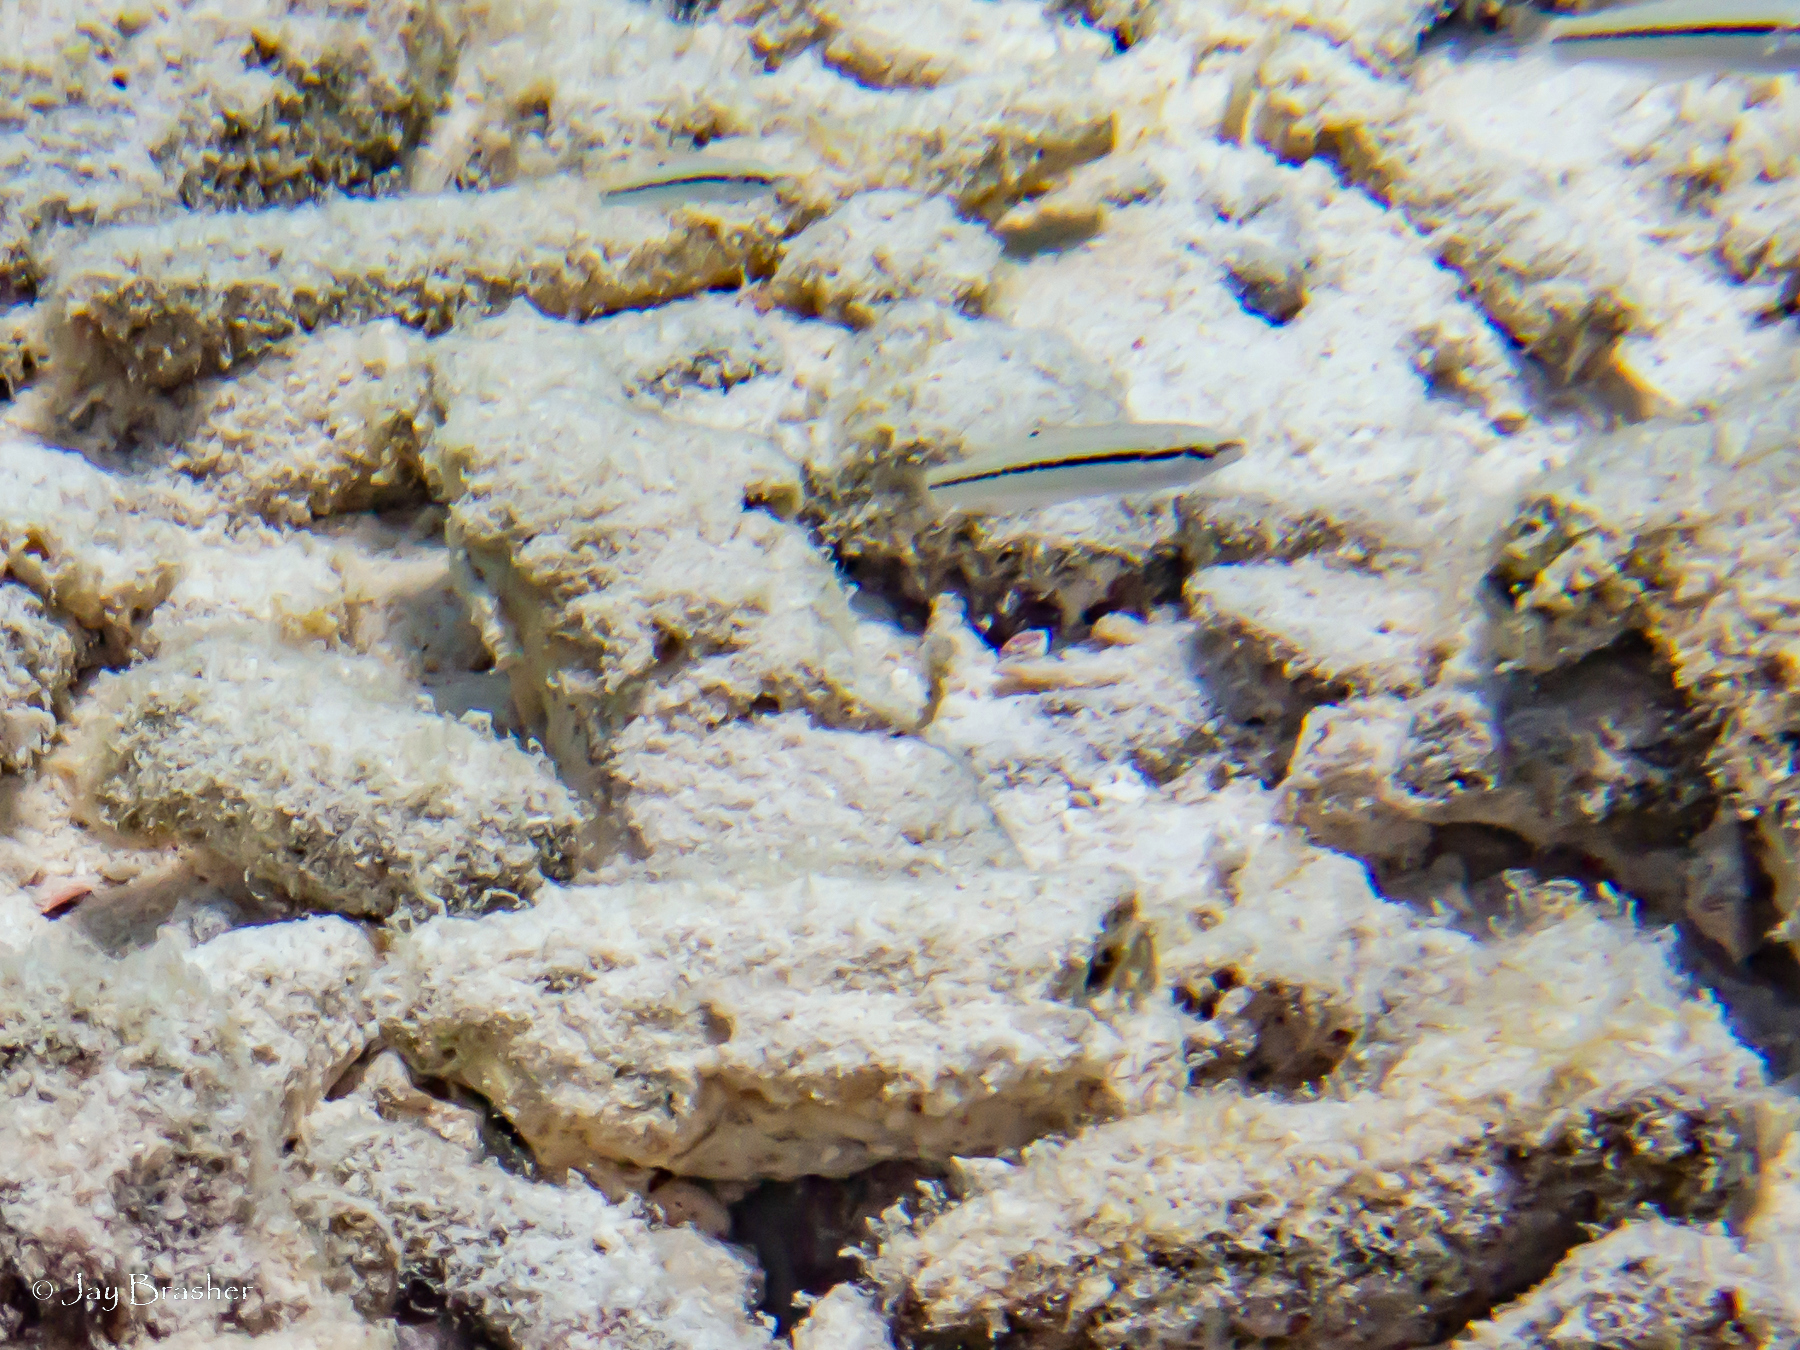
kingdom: Animalia
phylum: Chordata
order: Perciformes
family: Labridae
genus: Halichoeres
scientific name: Halichoeres bivittatus
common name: Slippery dick
